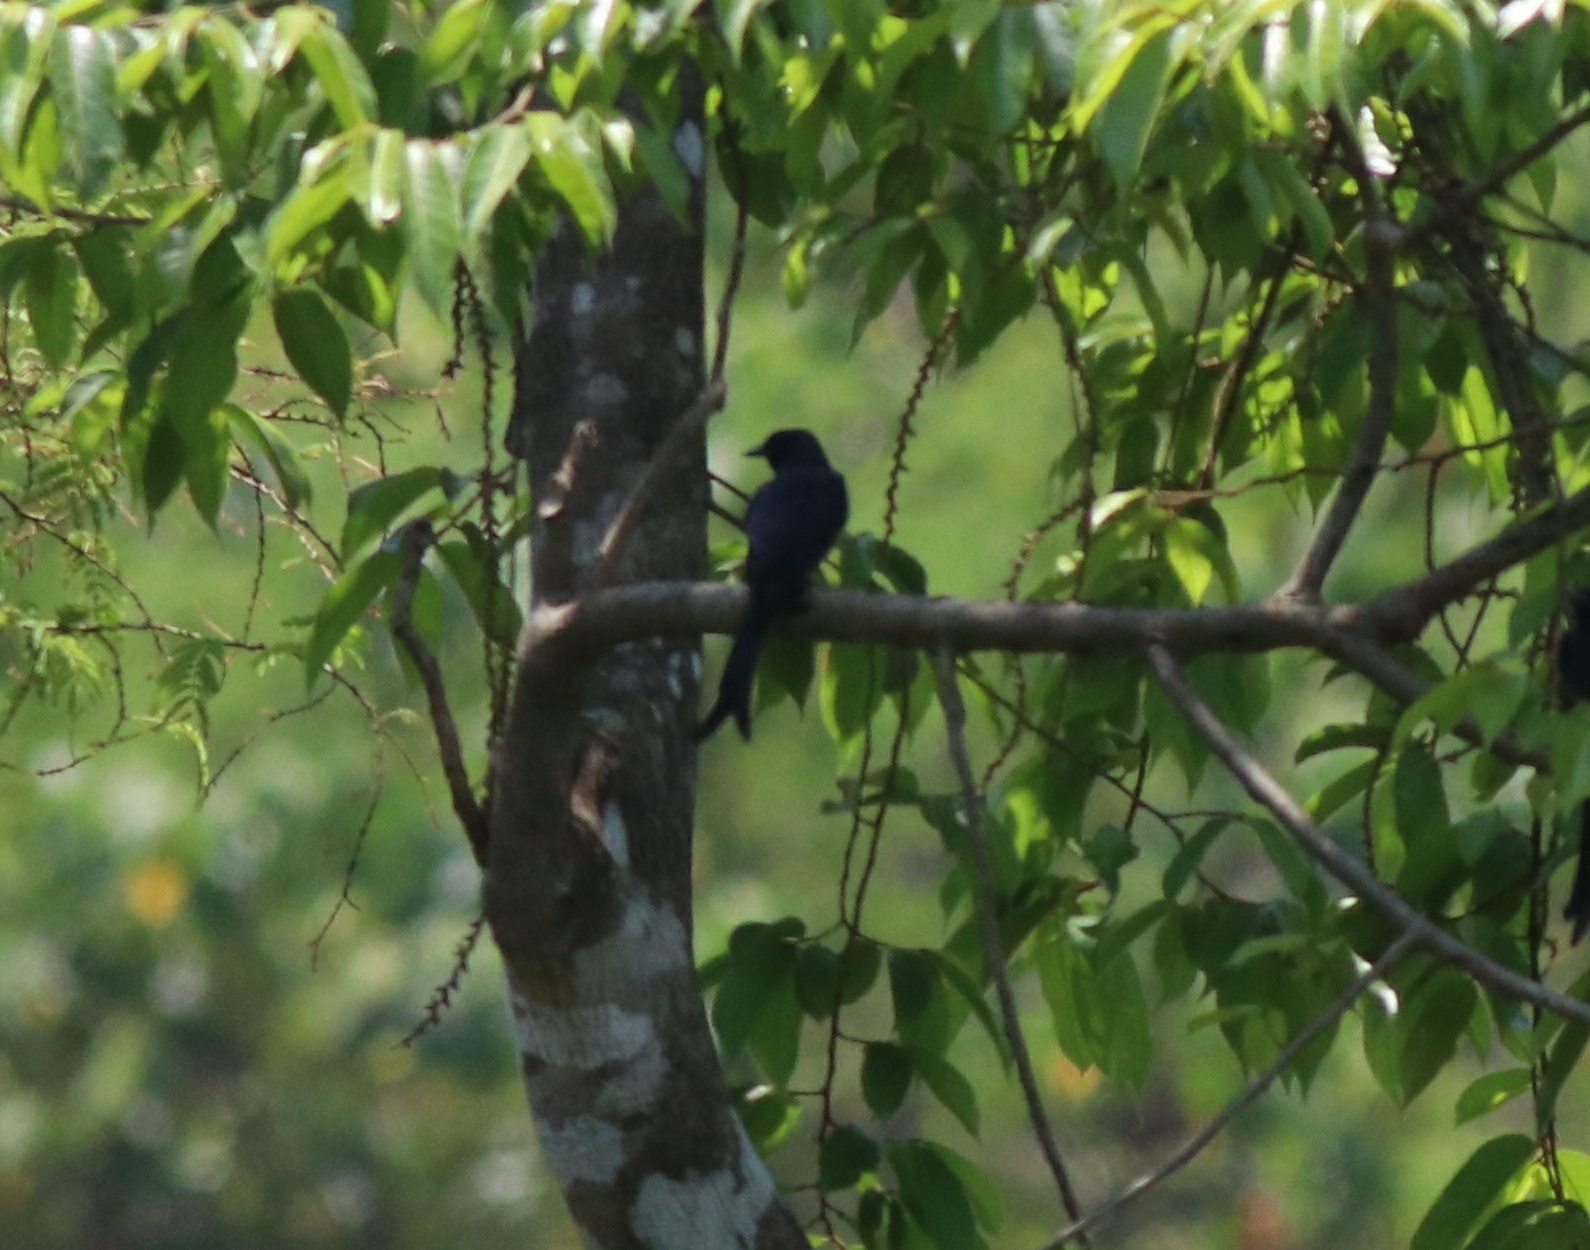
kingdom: Animalia
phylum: Chordata
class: Aves
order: Passeriformes
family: Dicruridae
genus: Dicrurus
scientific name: Dicrurus leucophaeus
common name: Ashy drongo
